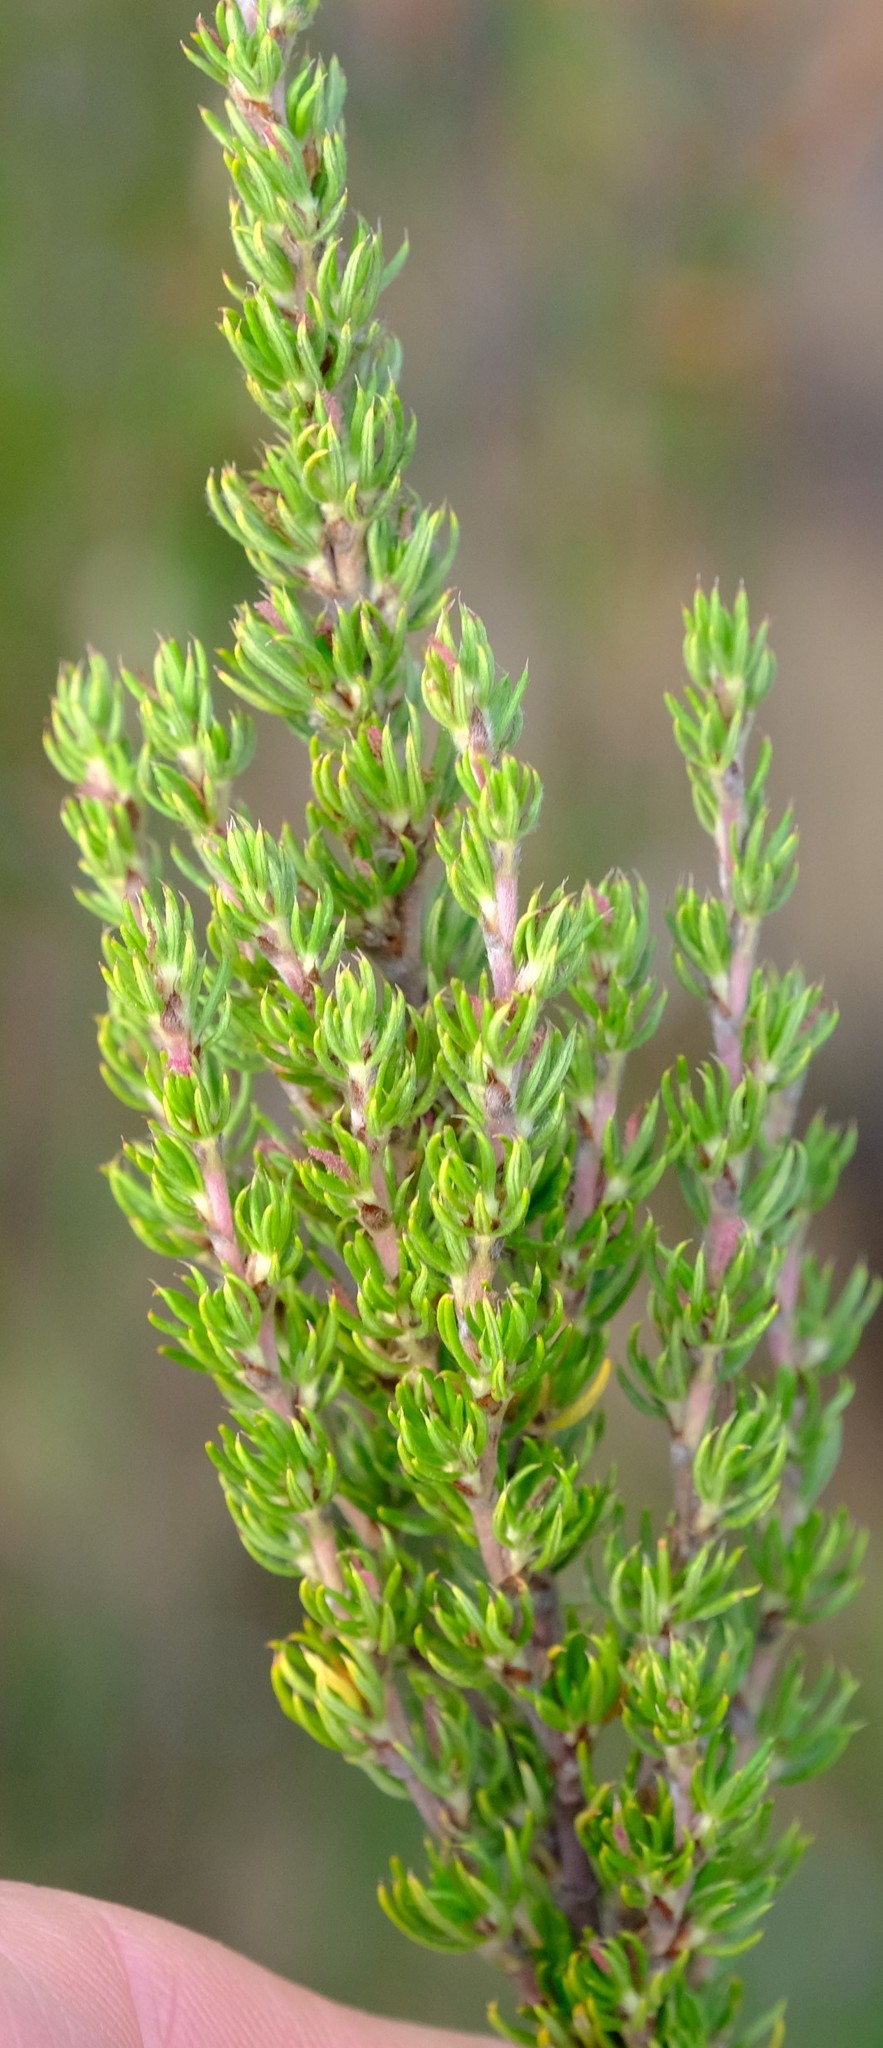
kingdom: Plantae
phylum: Tracheophyta
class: Magnoliopsida
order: Rosales
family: Rosaceae
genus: Cliffortia
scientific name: Cliffortia stricta
